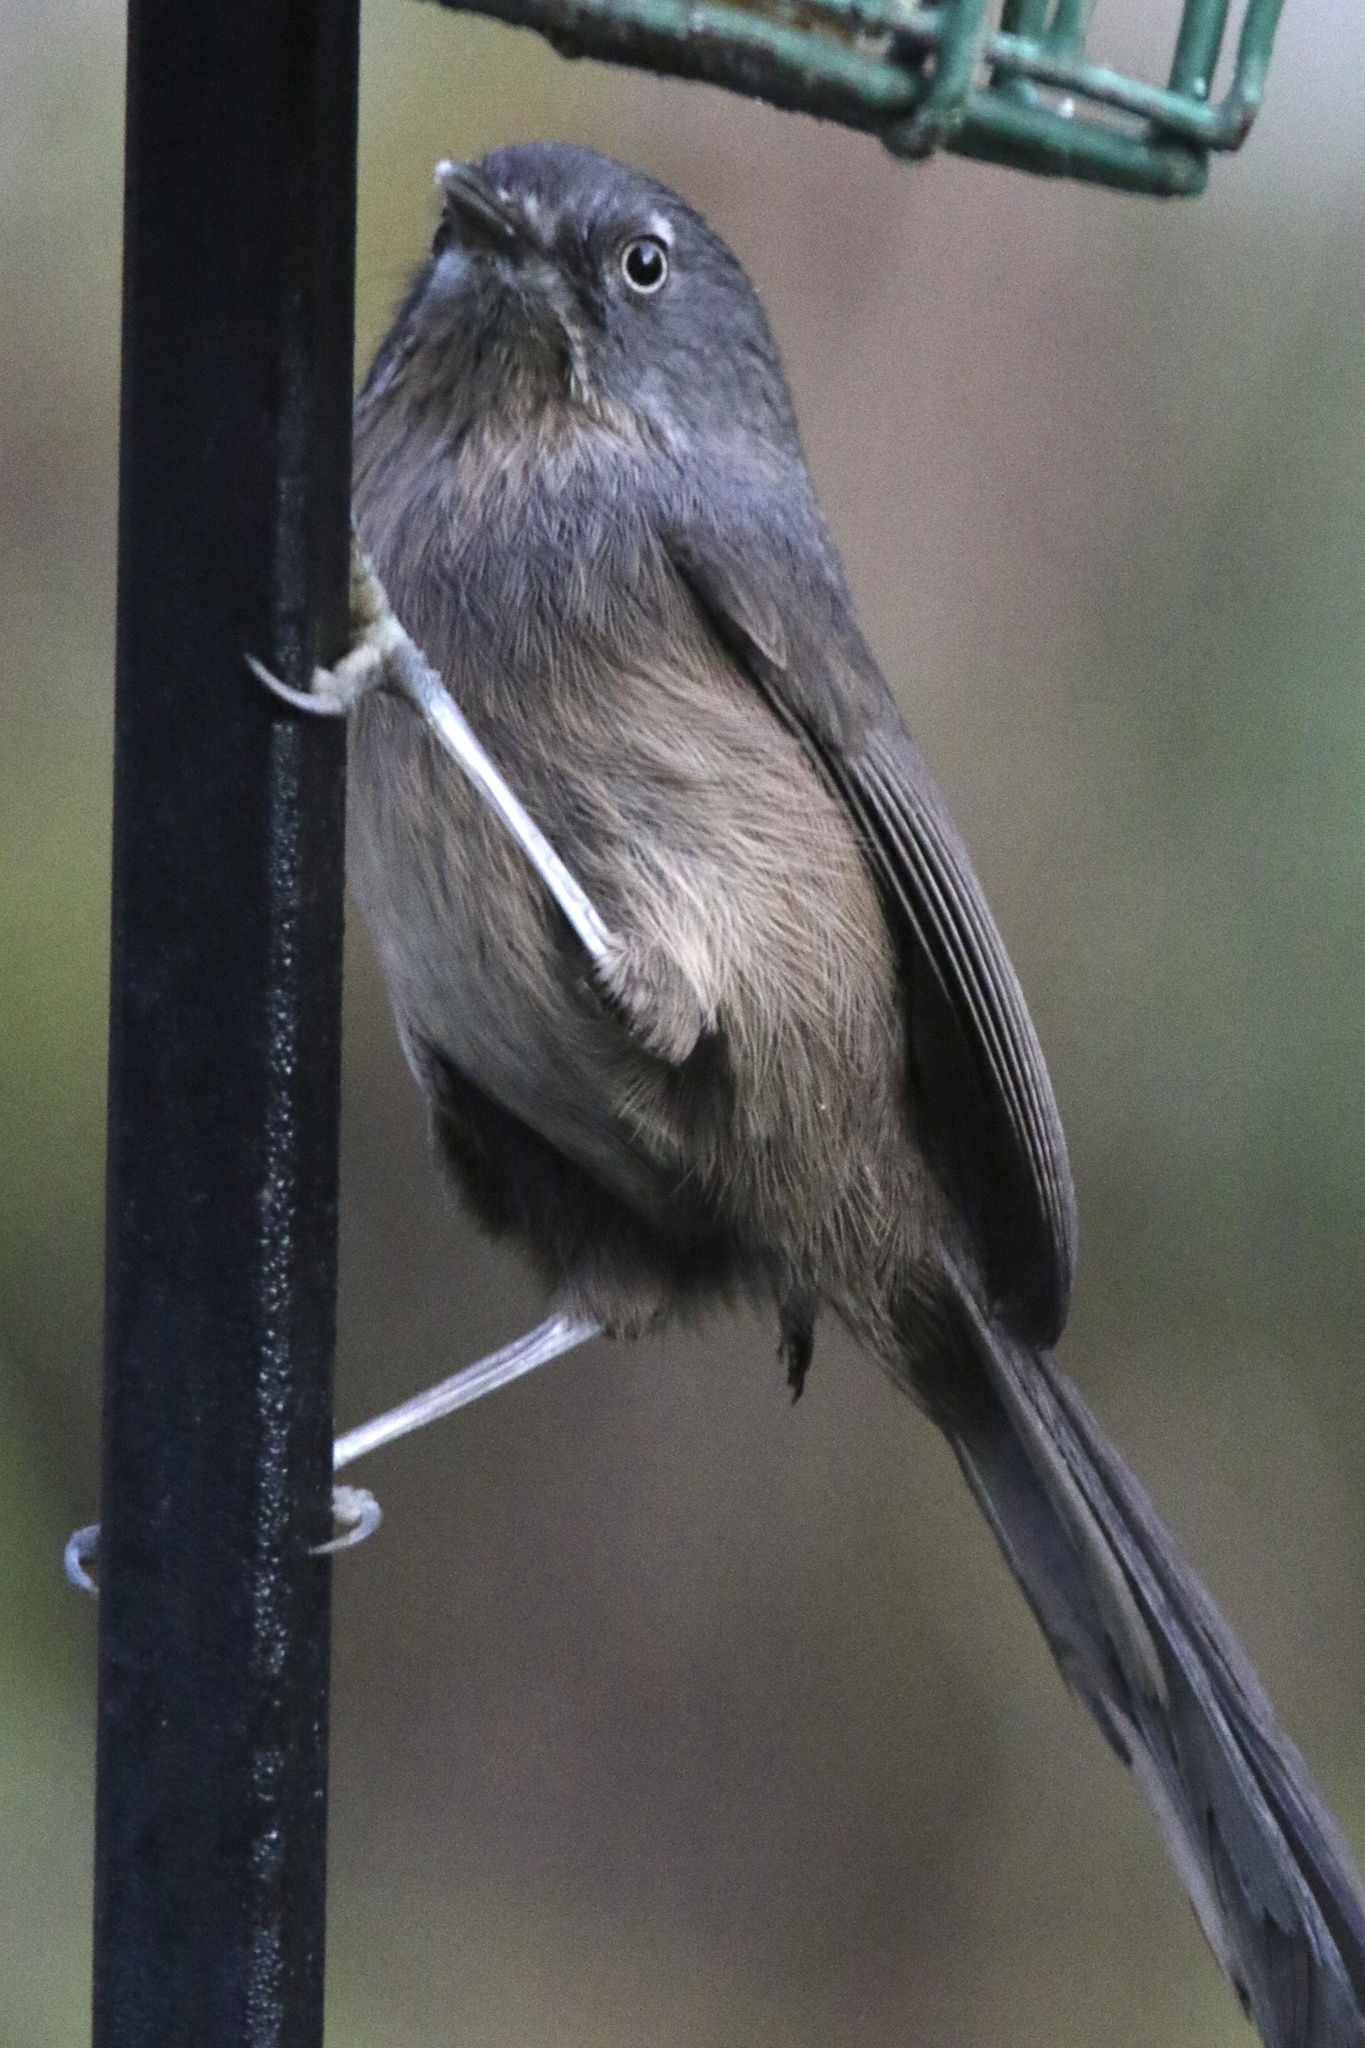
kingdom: Animalia
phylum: Chordata
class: Aves
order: Passeriformes
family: Sylviidae
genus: Chamaea
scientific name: Chamaea fasciata
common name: Wrentit
